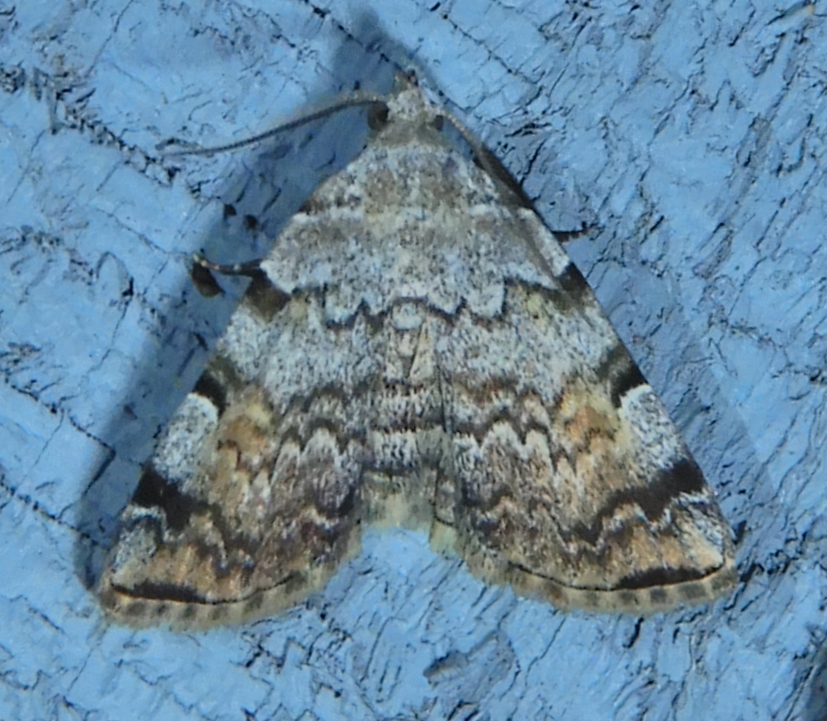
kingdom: Animalia
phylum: Arthropoda
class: Insecta
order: Lepidoptera
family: Erebidae
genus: Idia
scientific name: Idia americalis
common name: American idia moth
